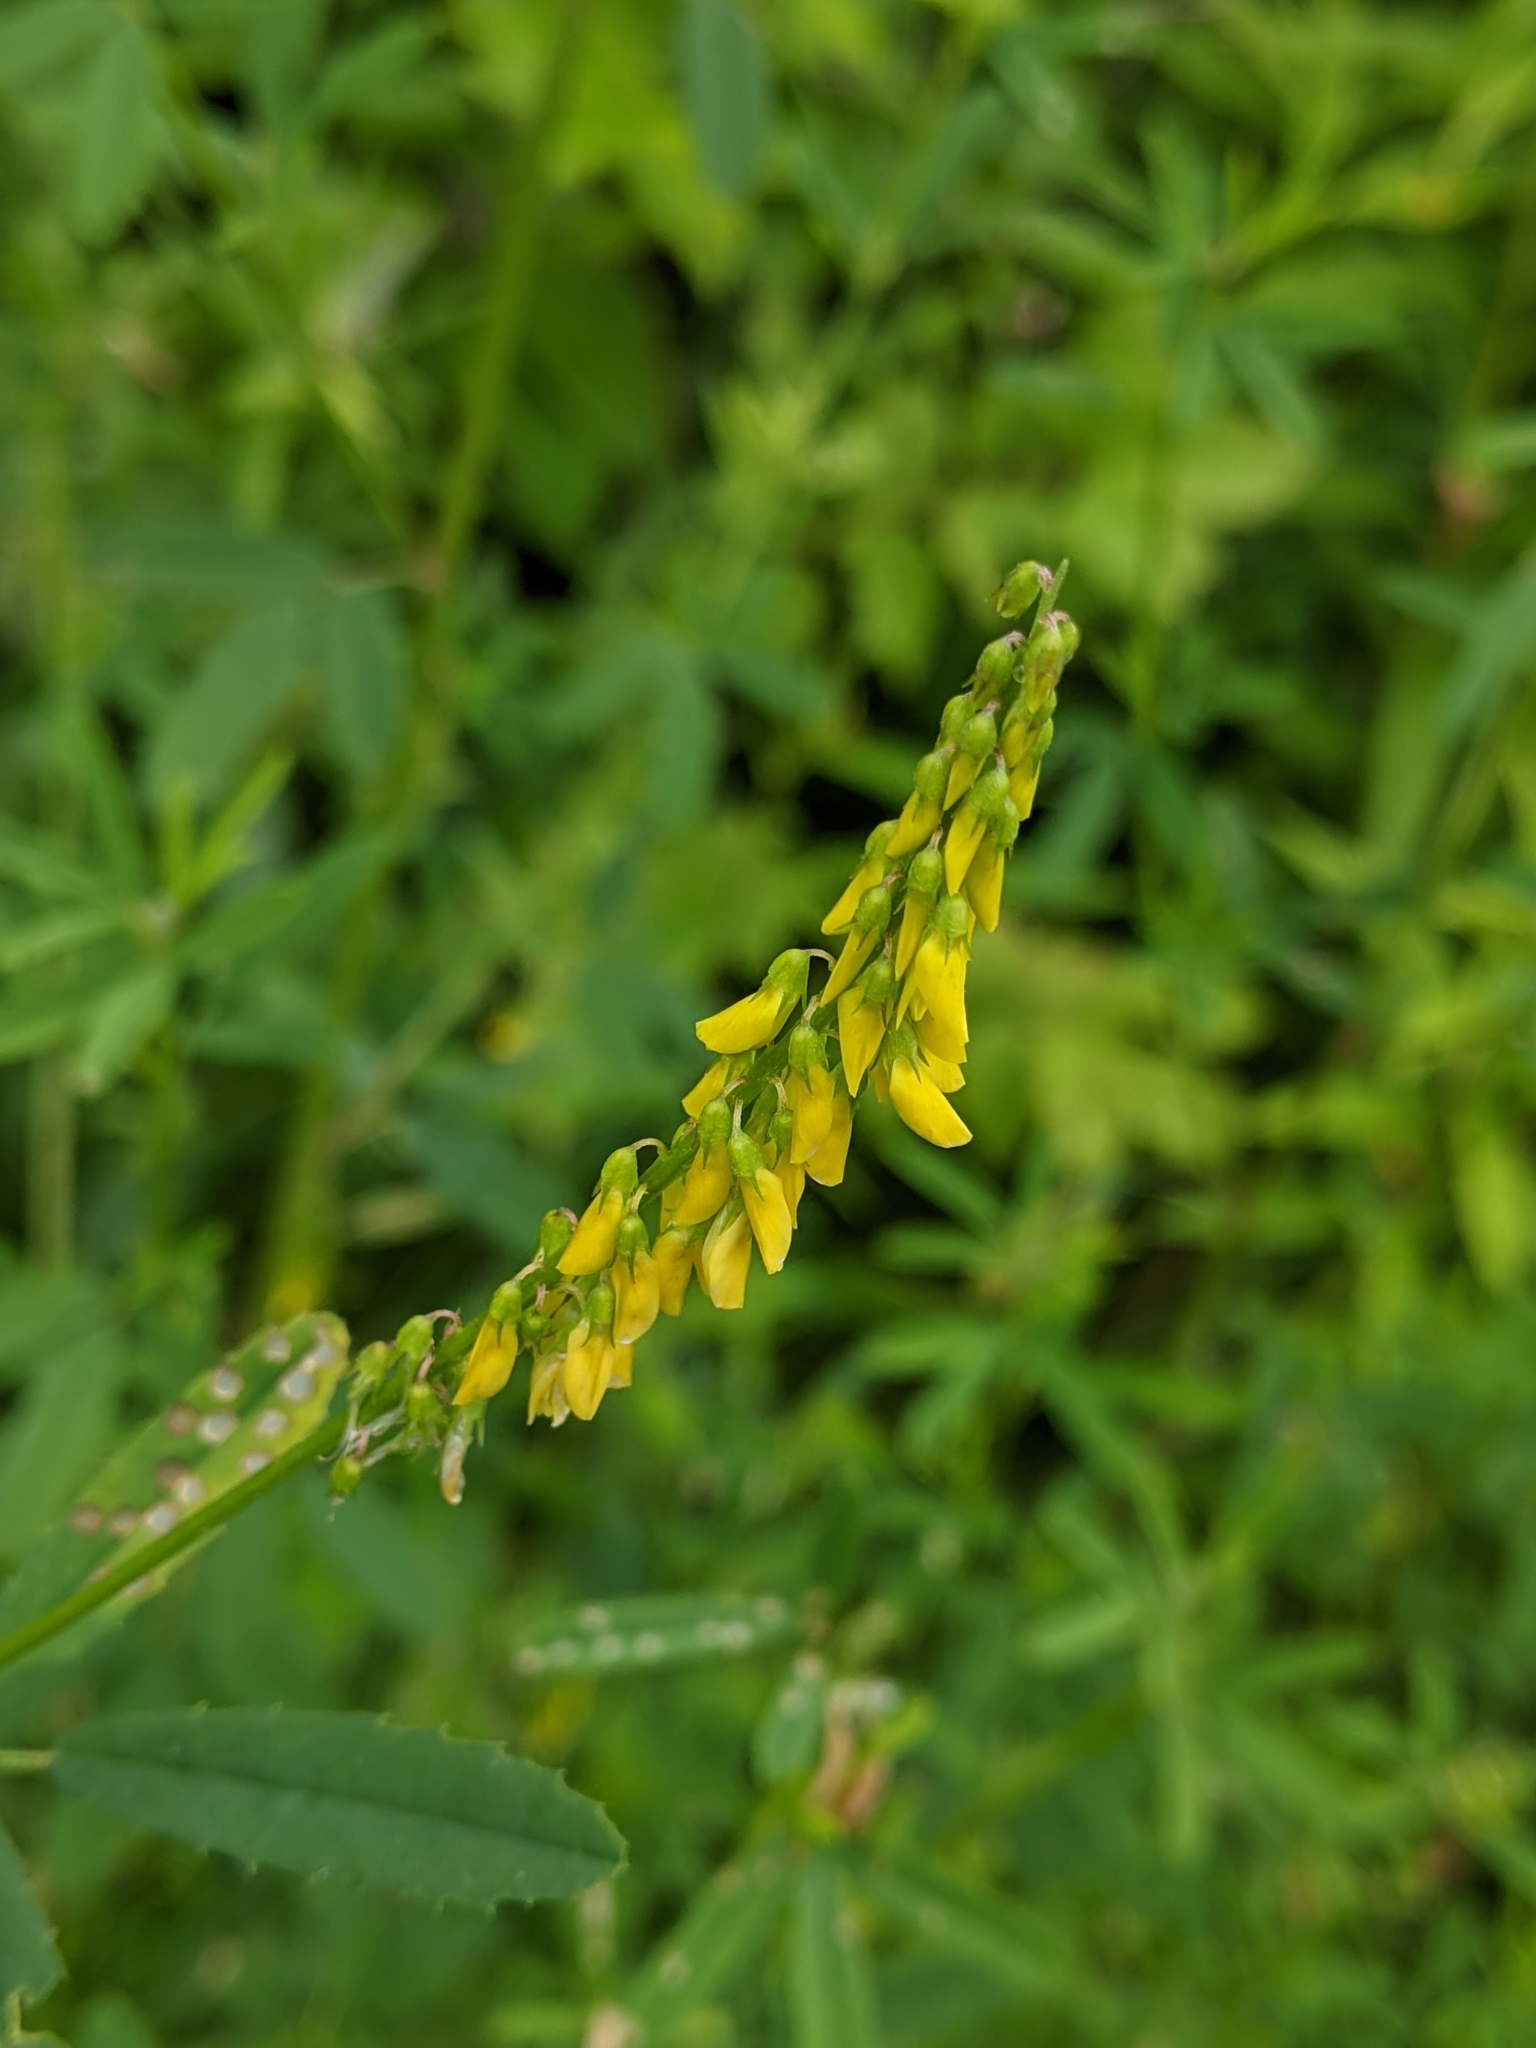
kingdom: Plantae
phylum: Tracheophyta
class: Magnoliopsida
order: Fabales
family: Fabaceae
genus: Melilotus
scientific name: Melilotus officinalis
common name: Sweetclover
